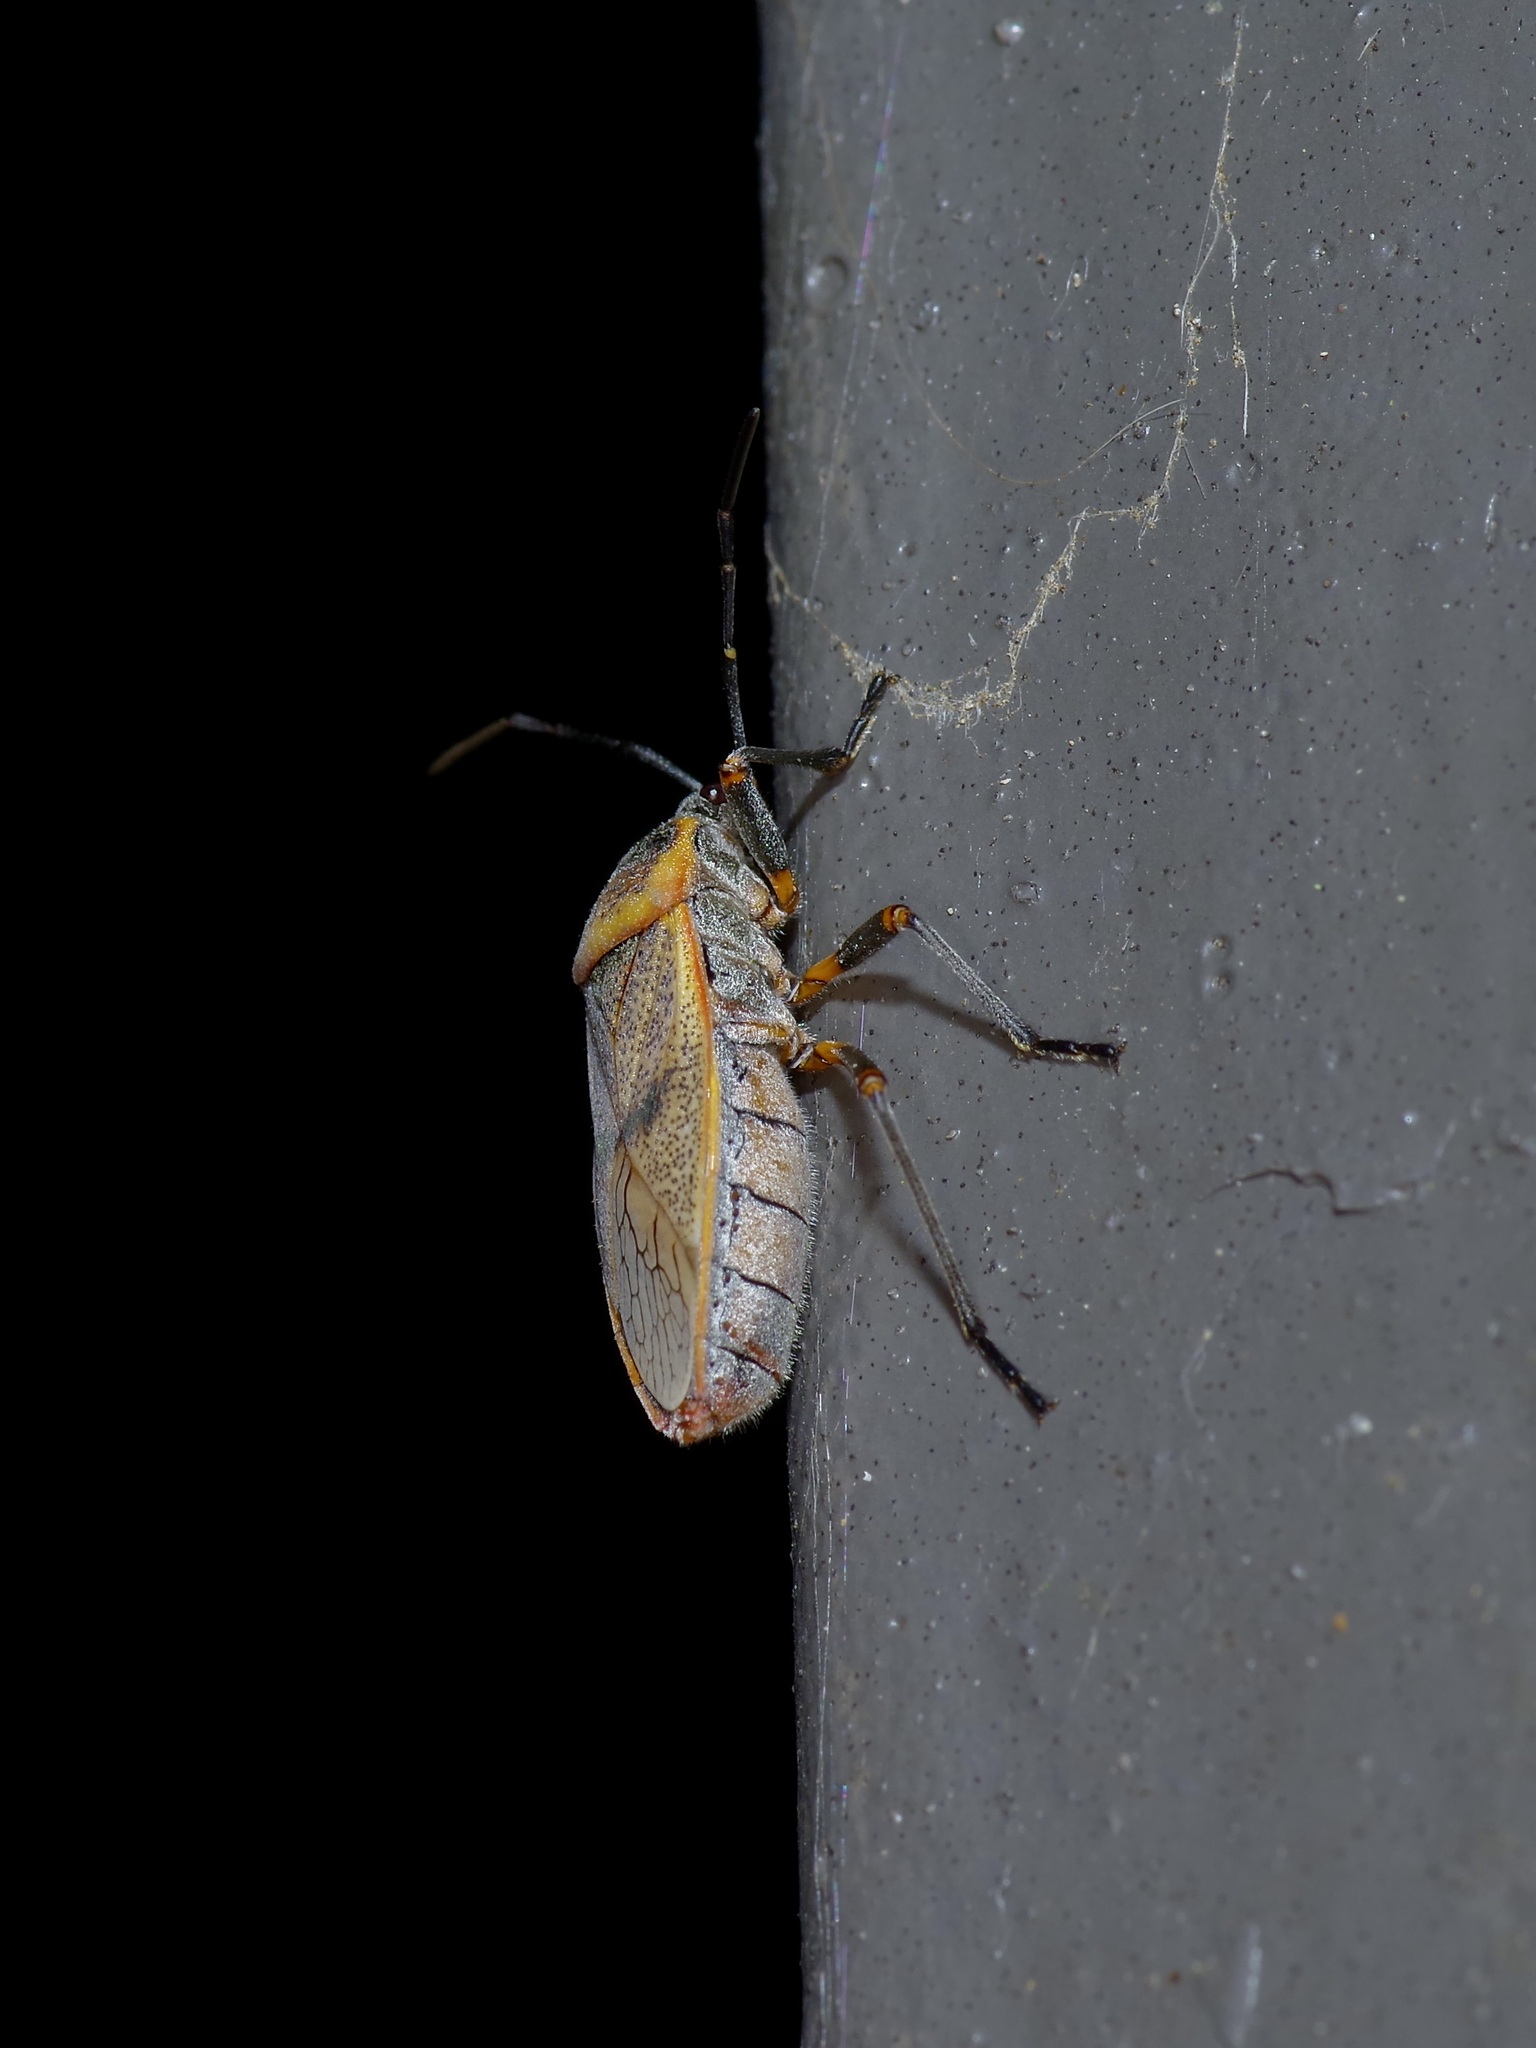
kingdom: Animalia
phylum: Arthropoda
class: Insecta
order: Hemiptera
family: Largidae
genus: Largus
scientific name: Largus maculatus
